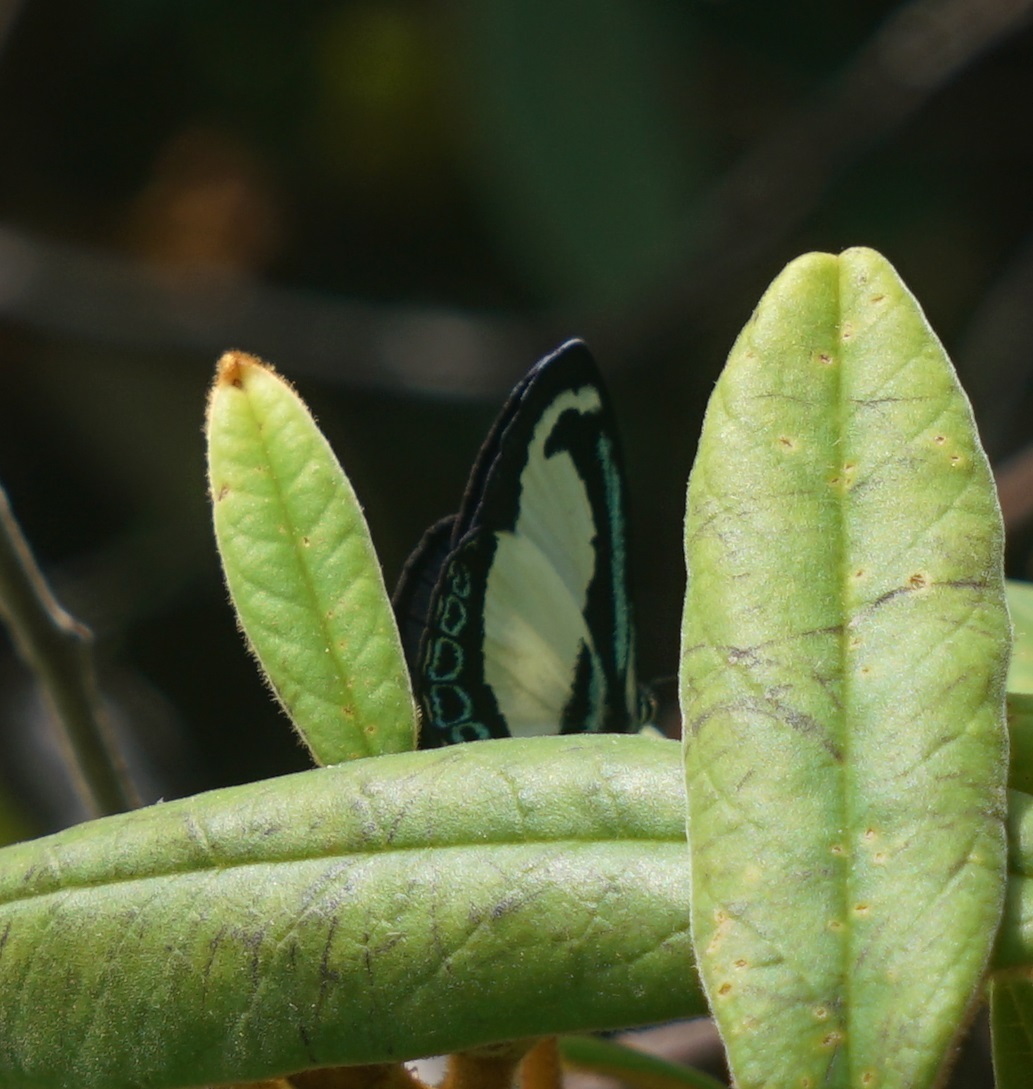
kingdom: Animalia
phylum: Arthropoda
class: Insecta
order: Lepidoptera
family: Lycaenidae
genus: Psychonotis
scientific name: Psychonotis caelius
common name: Small green banded blue
